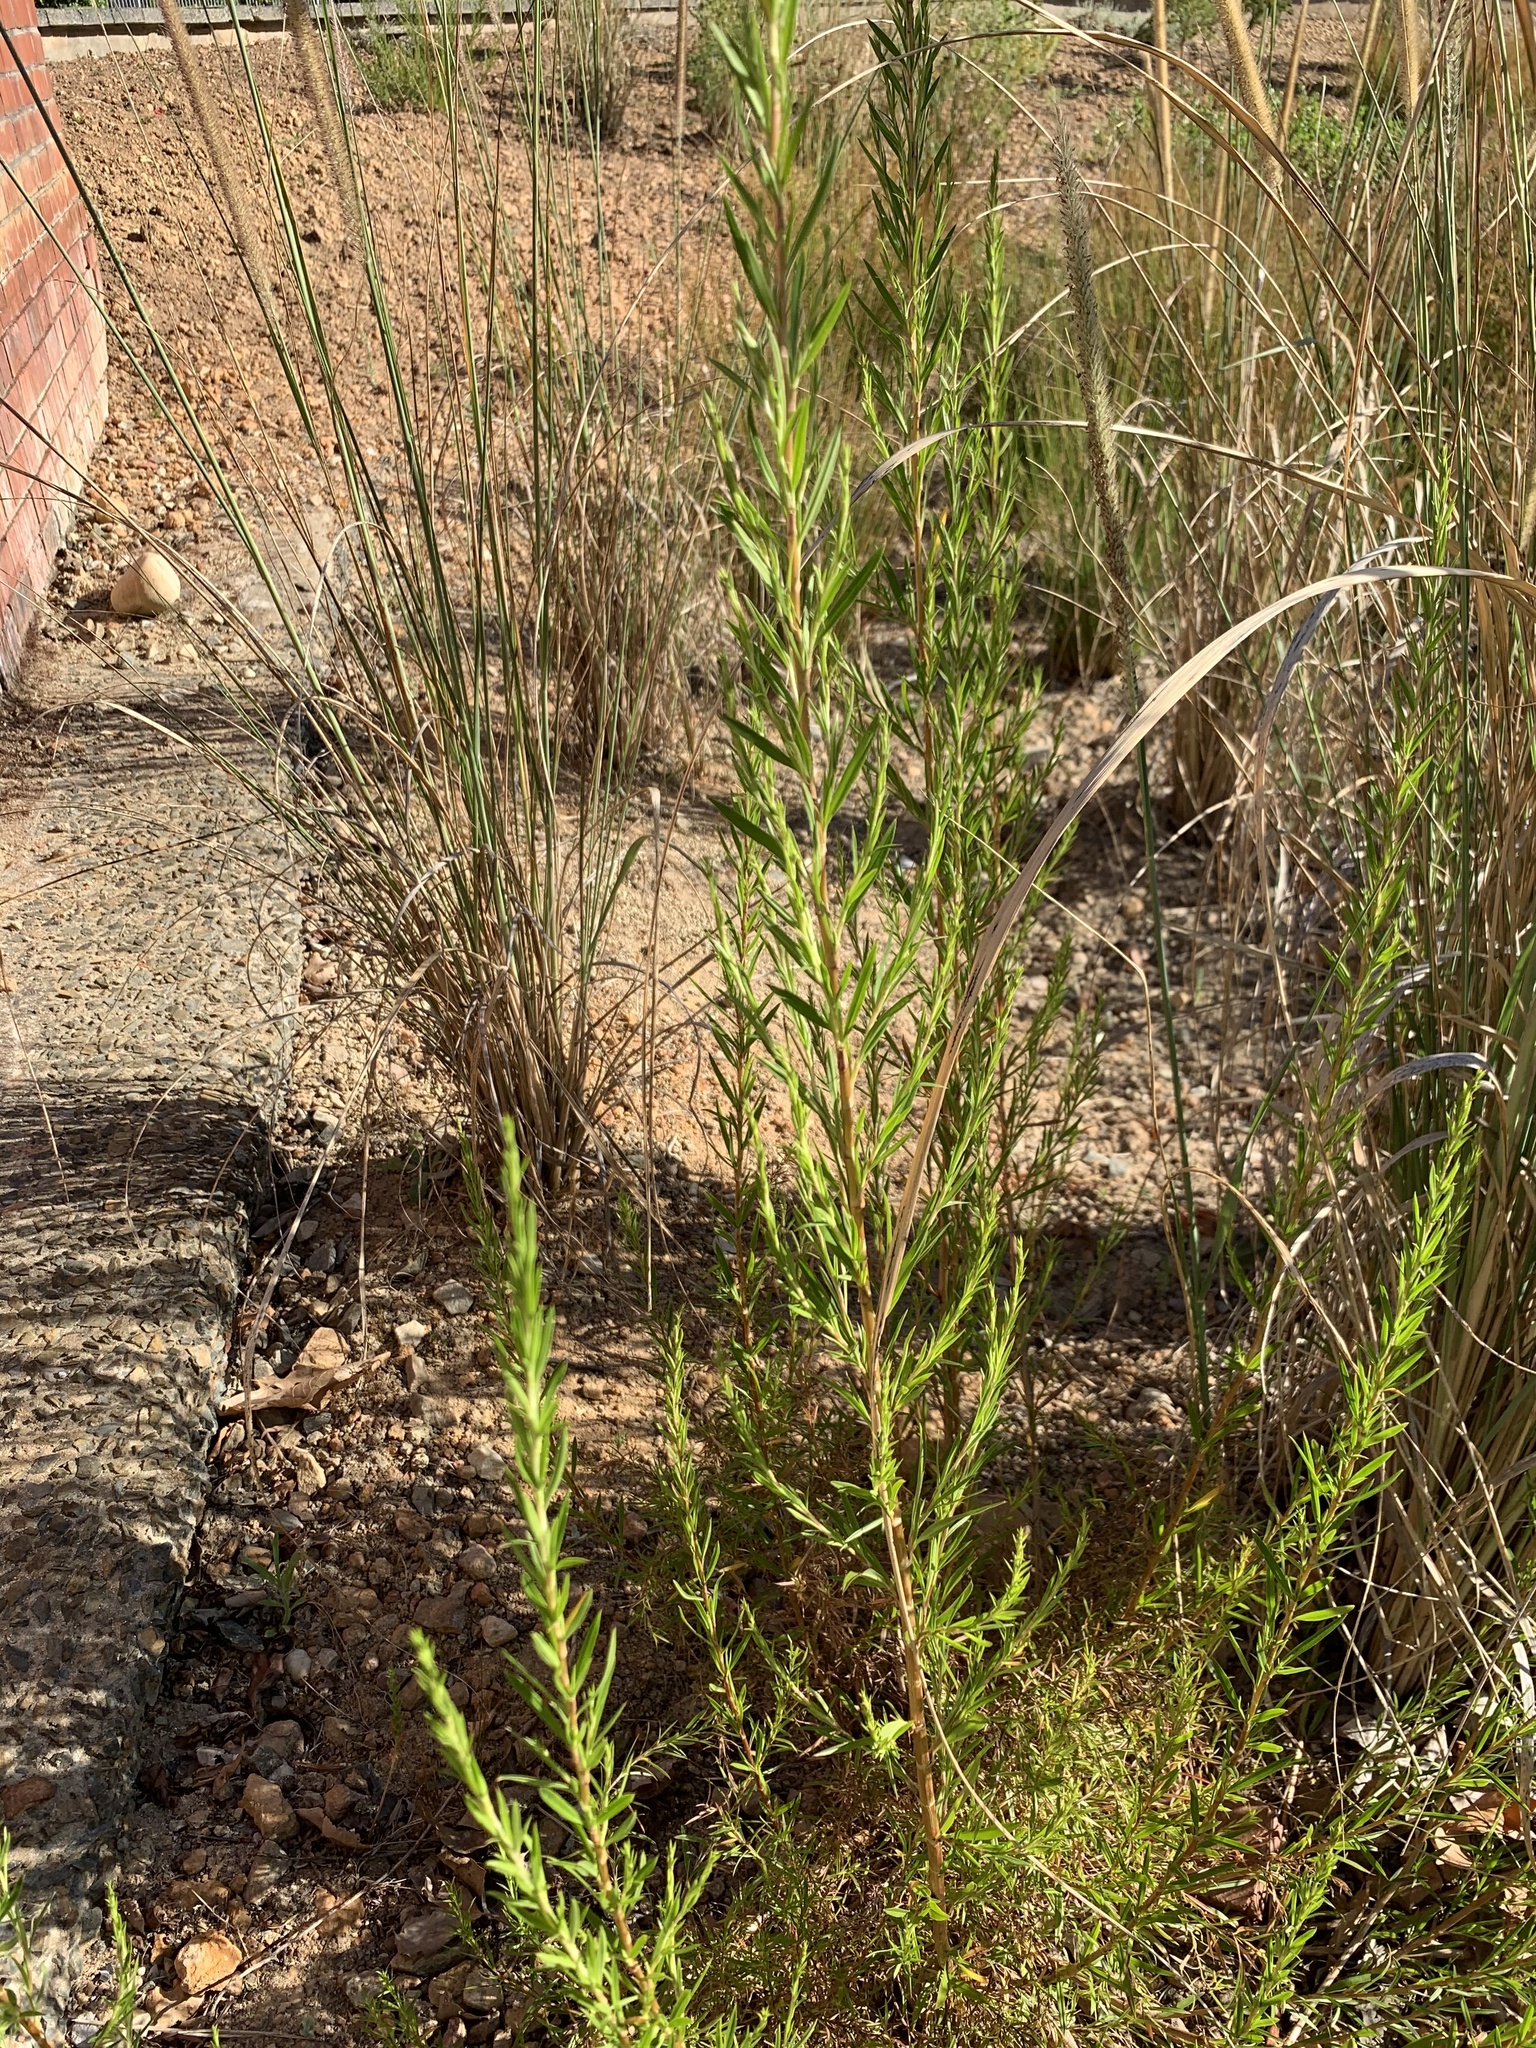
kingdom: Plantae
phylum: Tracheophyta
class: Magnoliopsida
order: Rosales
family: Rosaceae
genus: Cliffortia
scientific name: Cliffortia strobilifera
